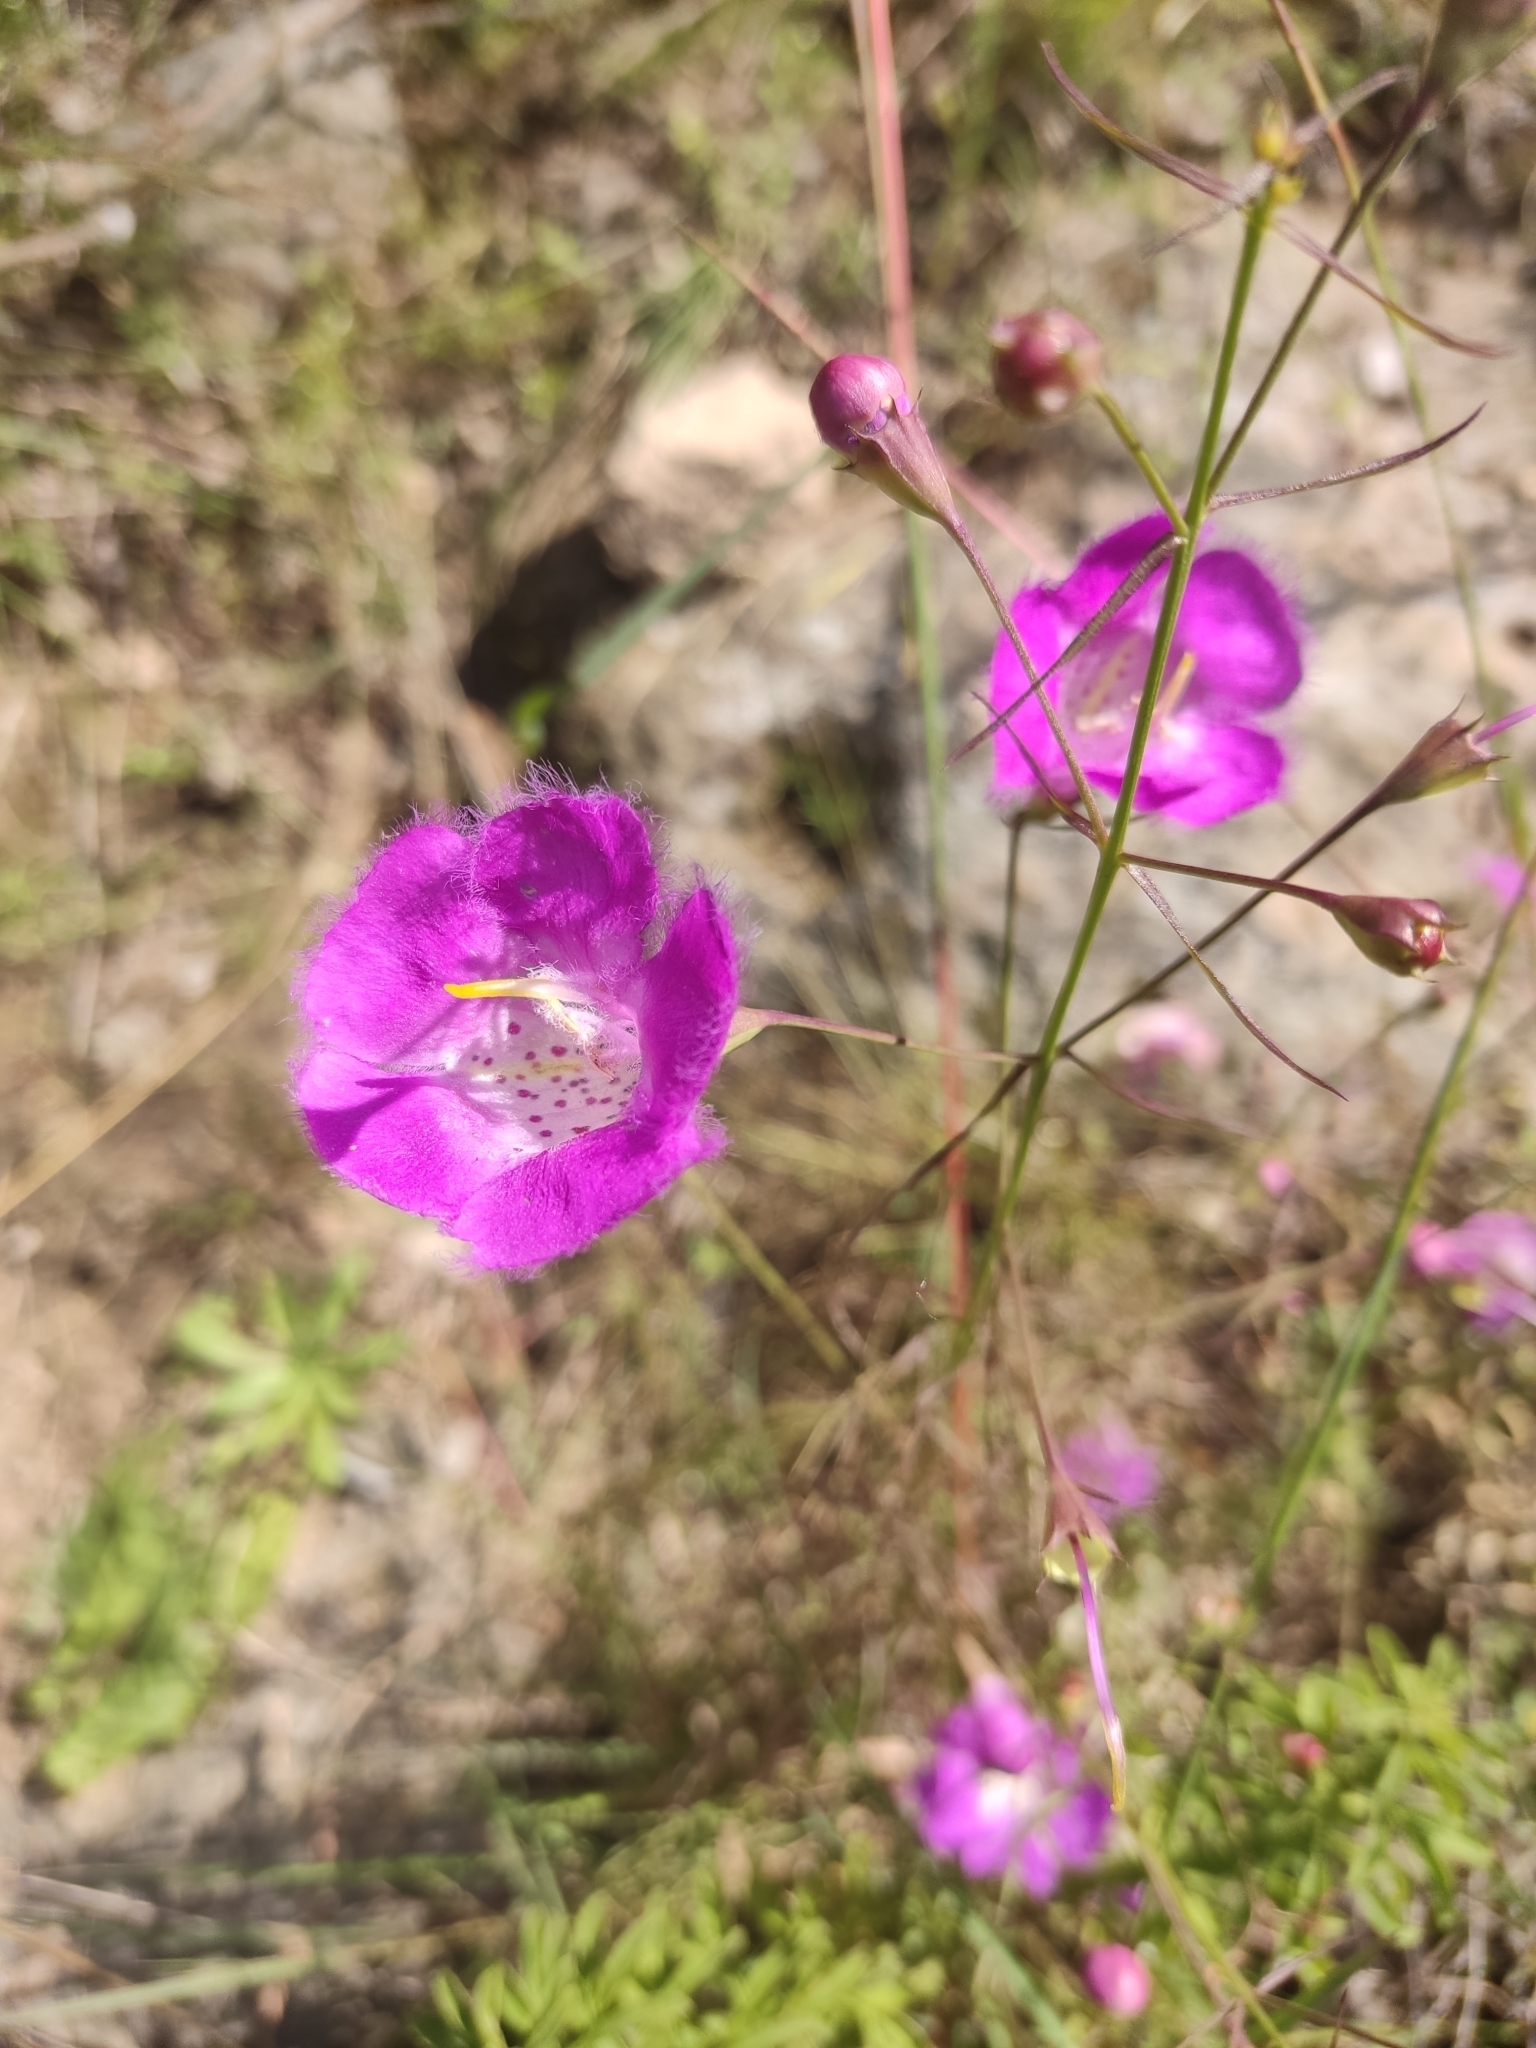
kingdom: Plantae
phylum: Tracheophyta
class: Magnoliopsida
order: Lamiales
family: Orobanchaceae
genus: Agalinis
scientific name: Agalinis peduncularis
